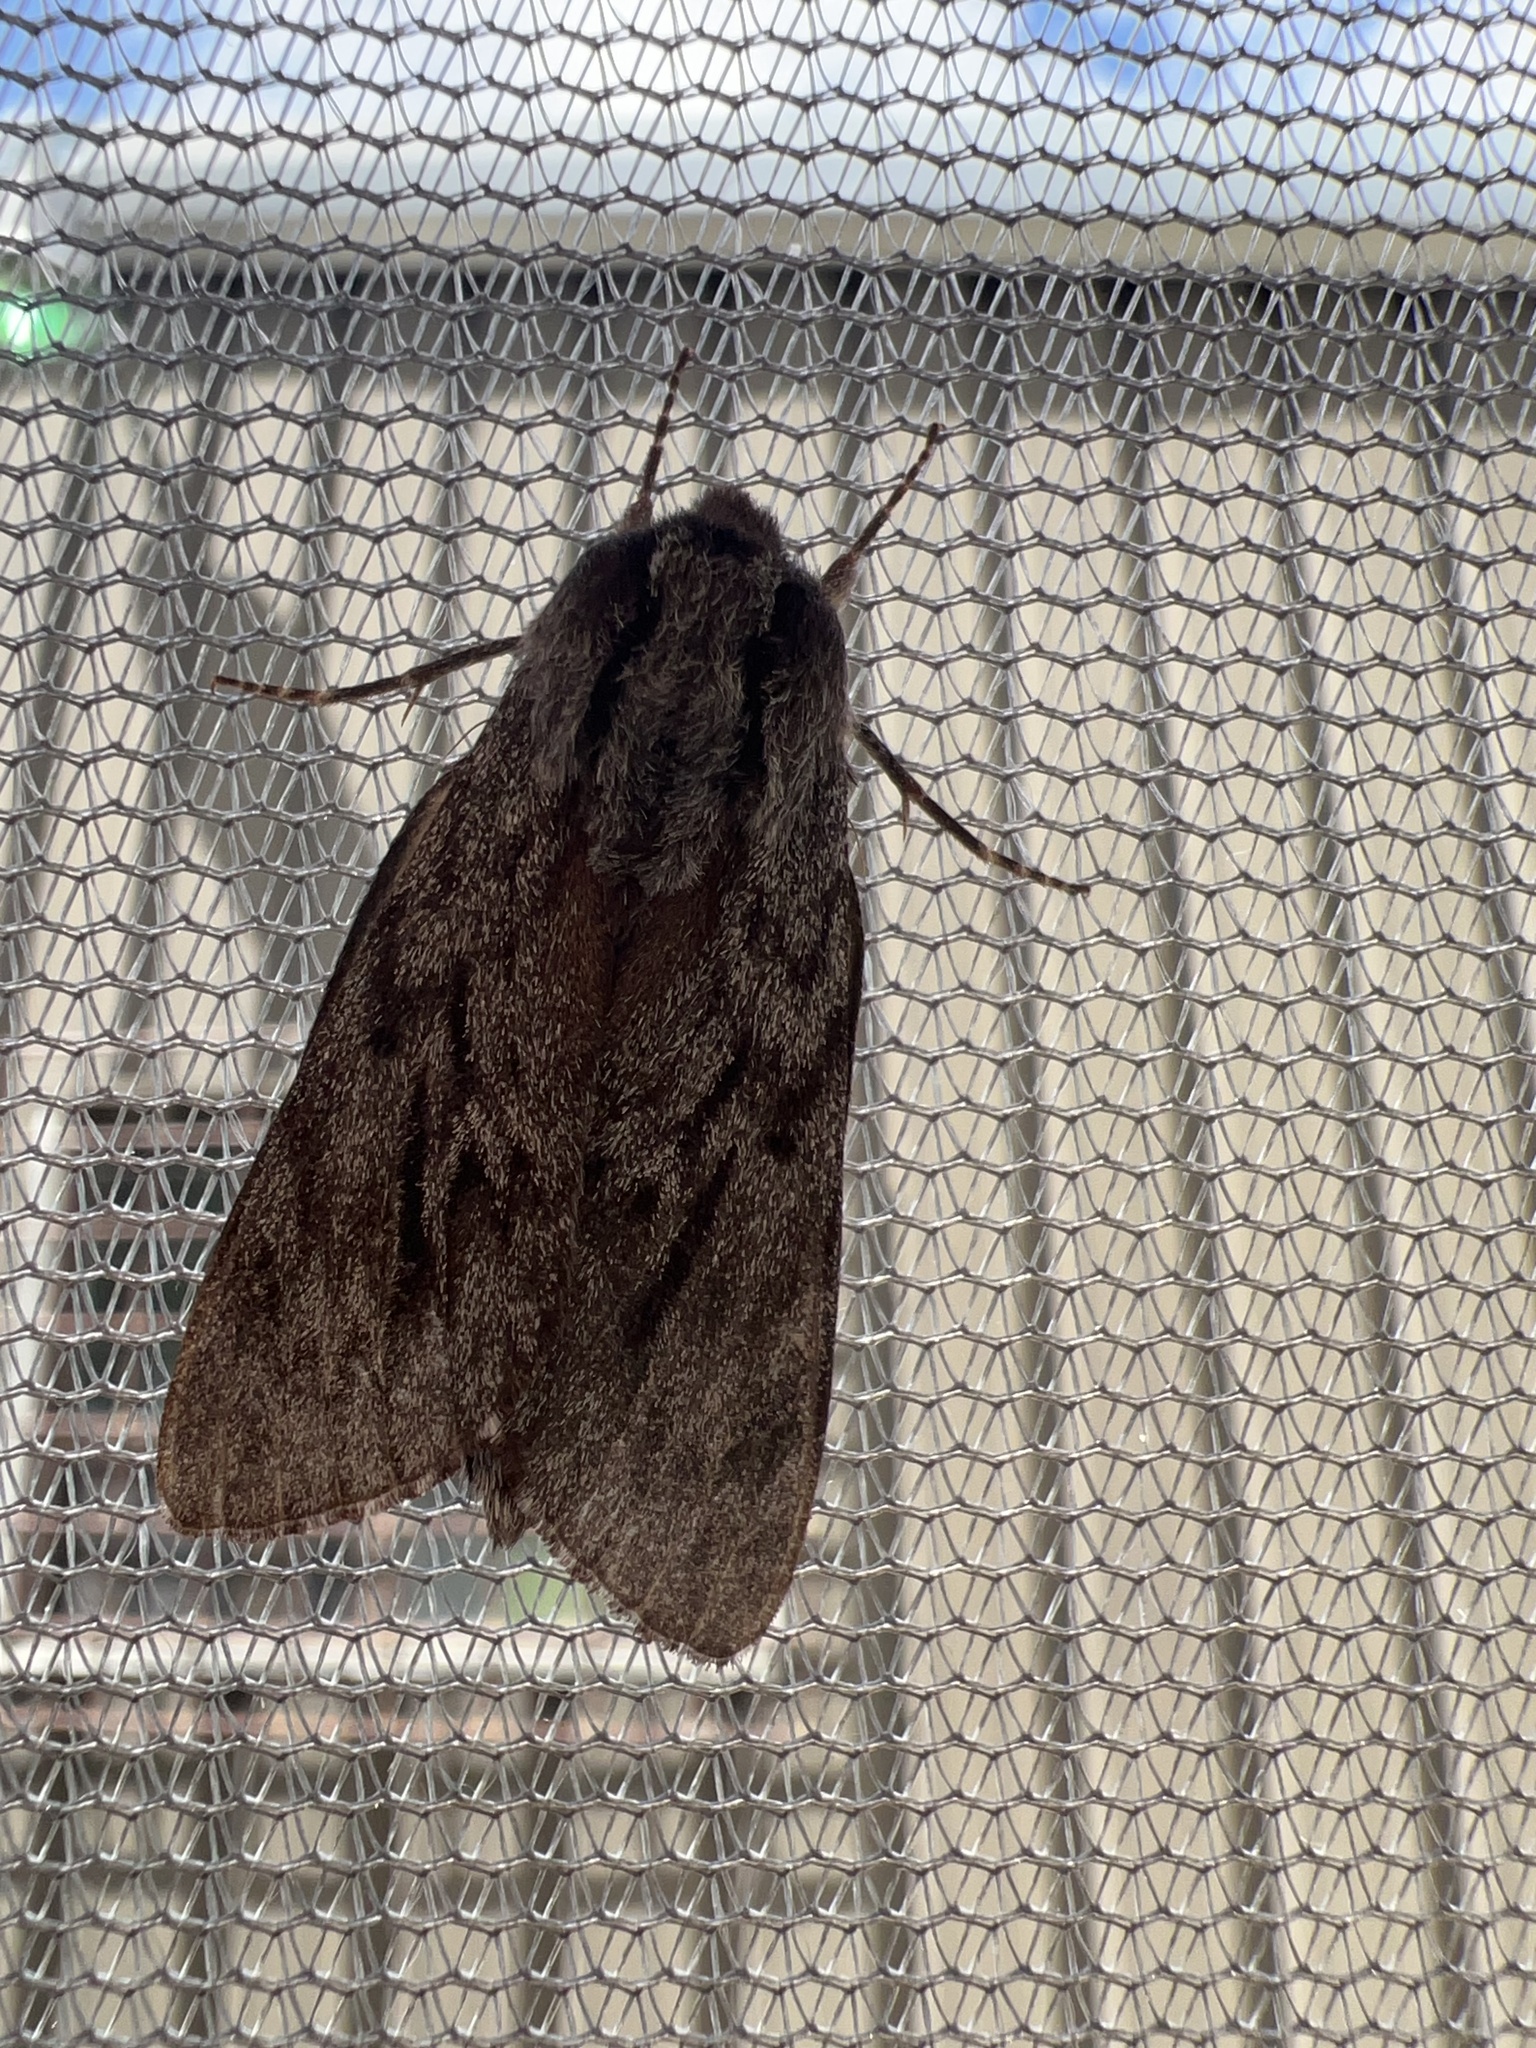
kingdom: Animalia
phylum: Arthropoda
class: Insecta
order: Lepidoptera
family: Sphingidae
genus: Lapara
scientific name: Lapara bombycoides
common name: Northern pine sphinx
